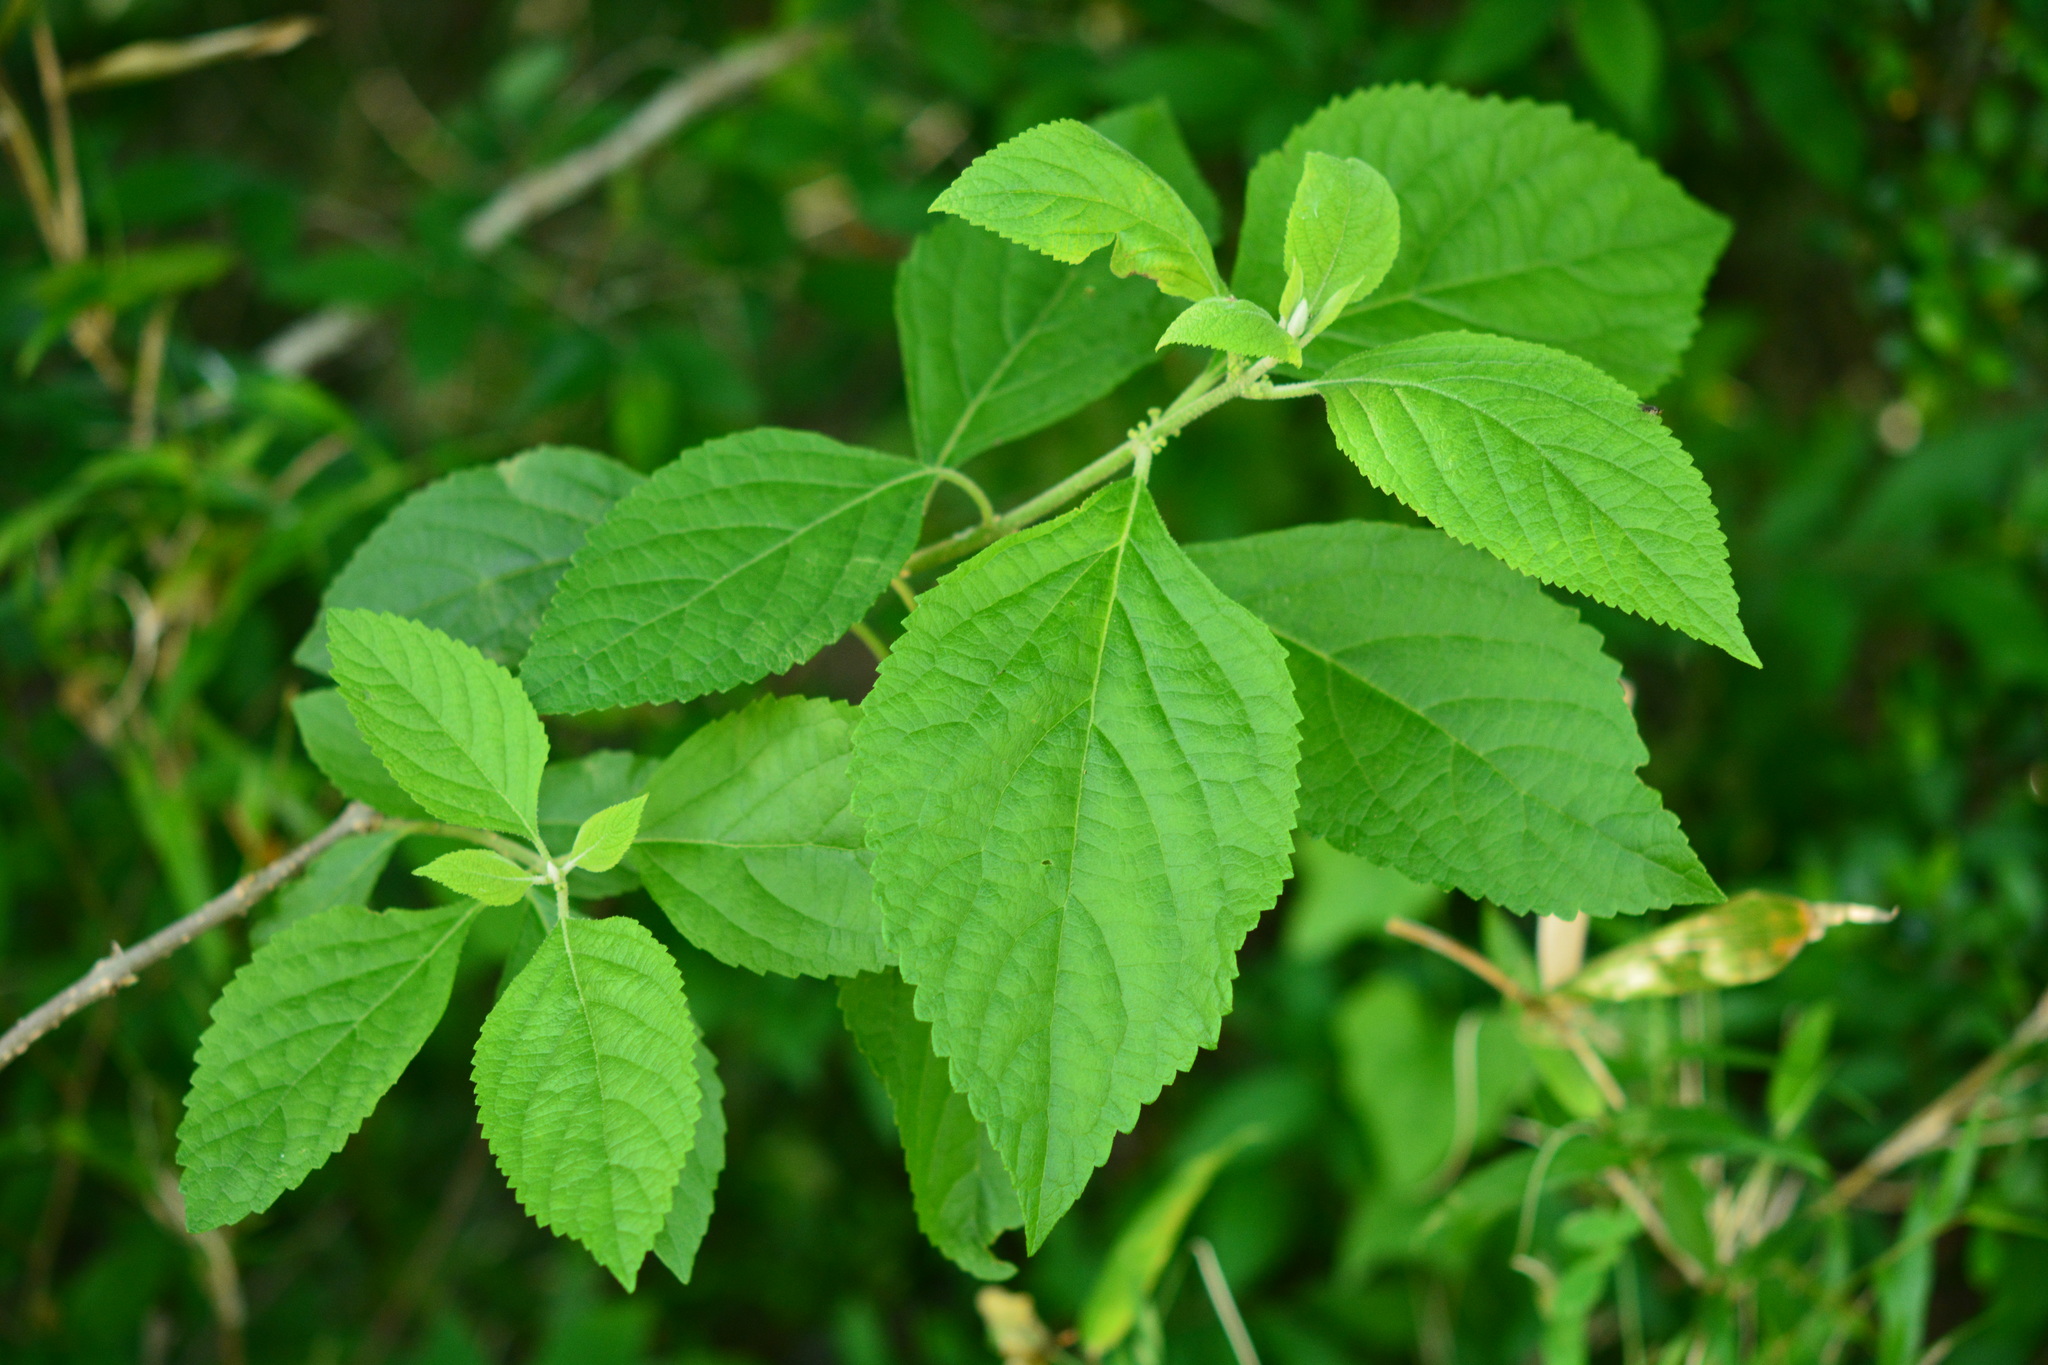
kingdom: Plantae
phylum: Tracheophyta
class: Magnoliopsida
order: Lamiales
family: Lamiaceae
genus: Callicarpa
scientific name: Callicarpa americana
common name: American beautyberry
